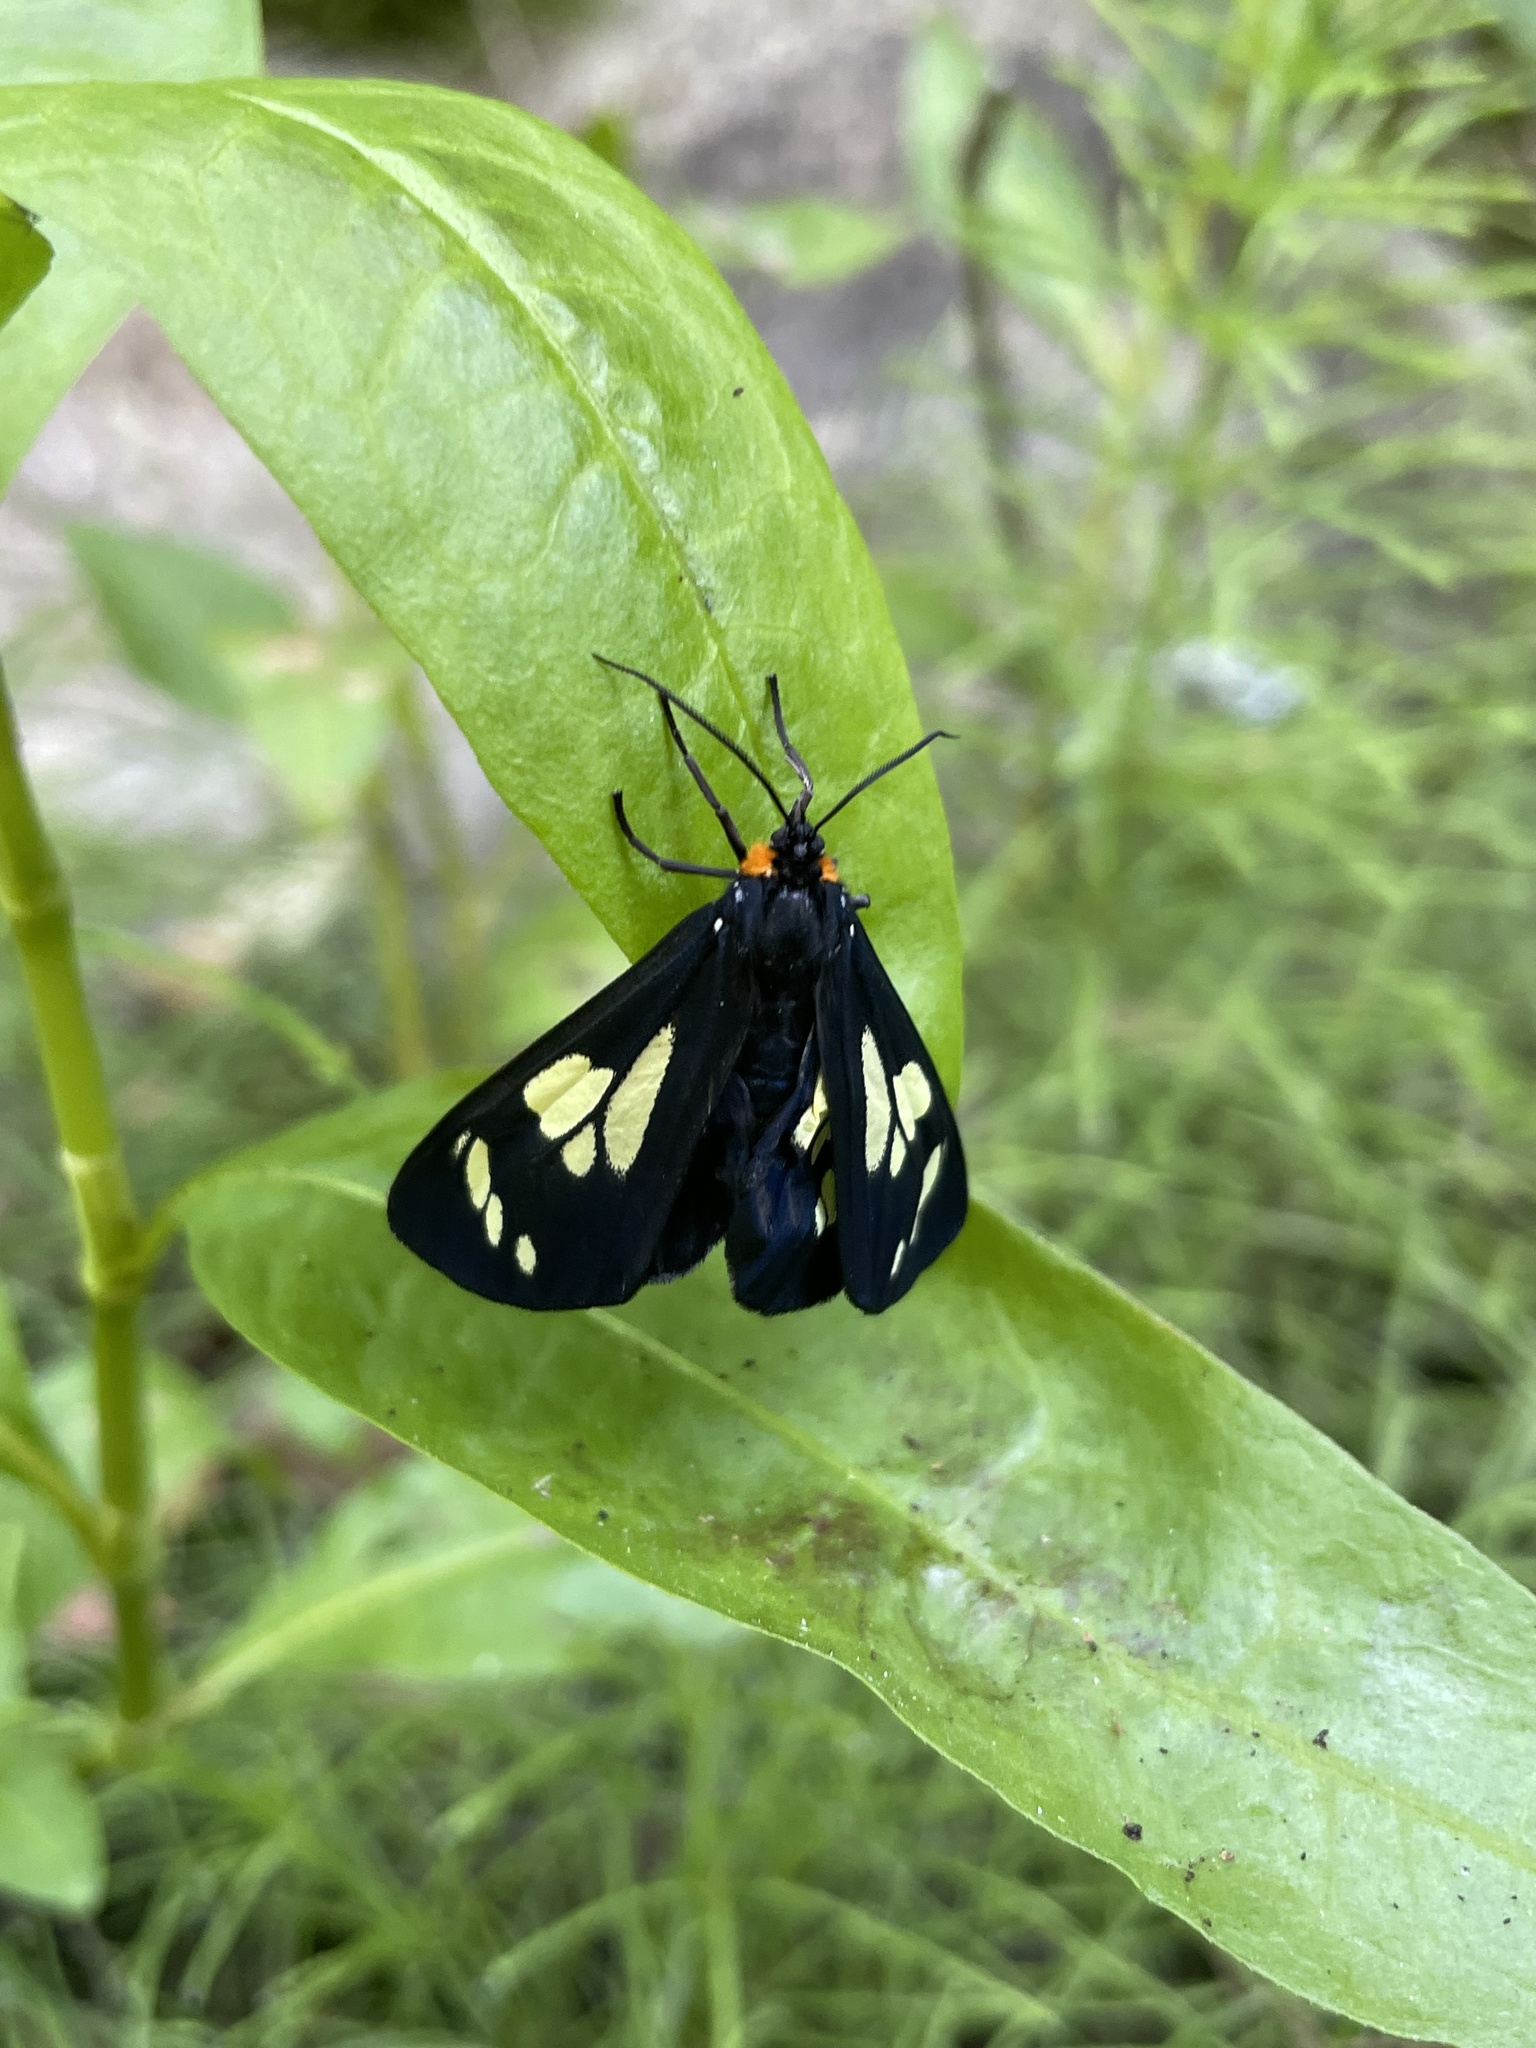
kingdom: Animalia
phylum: Arthropoda
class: Insecta
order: Lepidoptera
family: Erebidae
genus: Gnophaela
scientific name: Gnophaela latipennis
